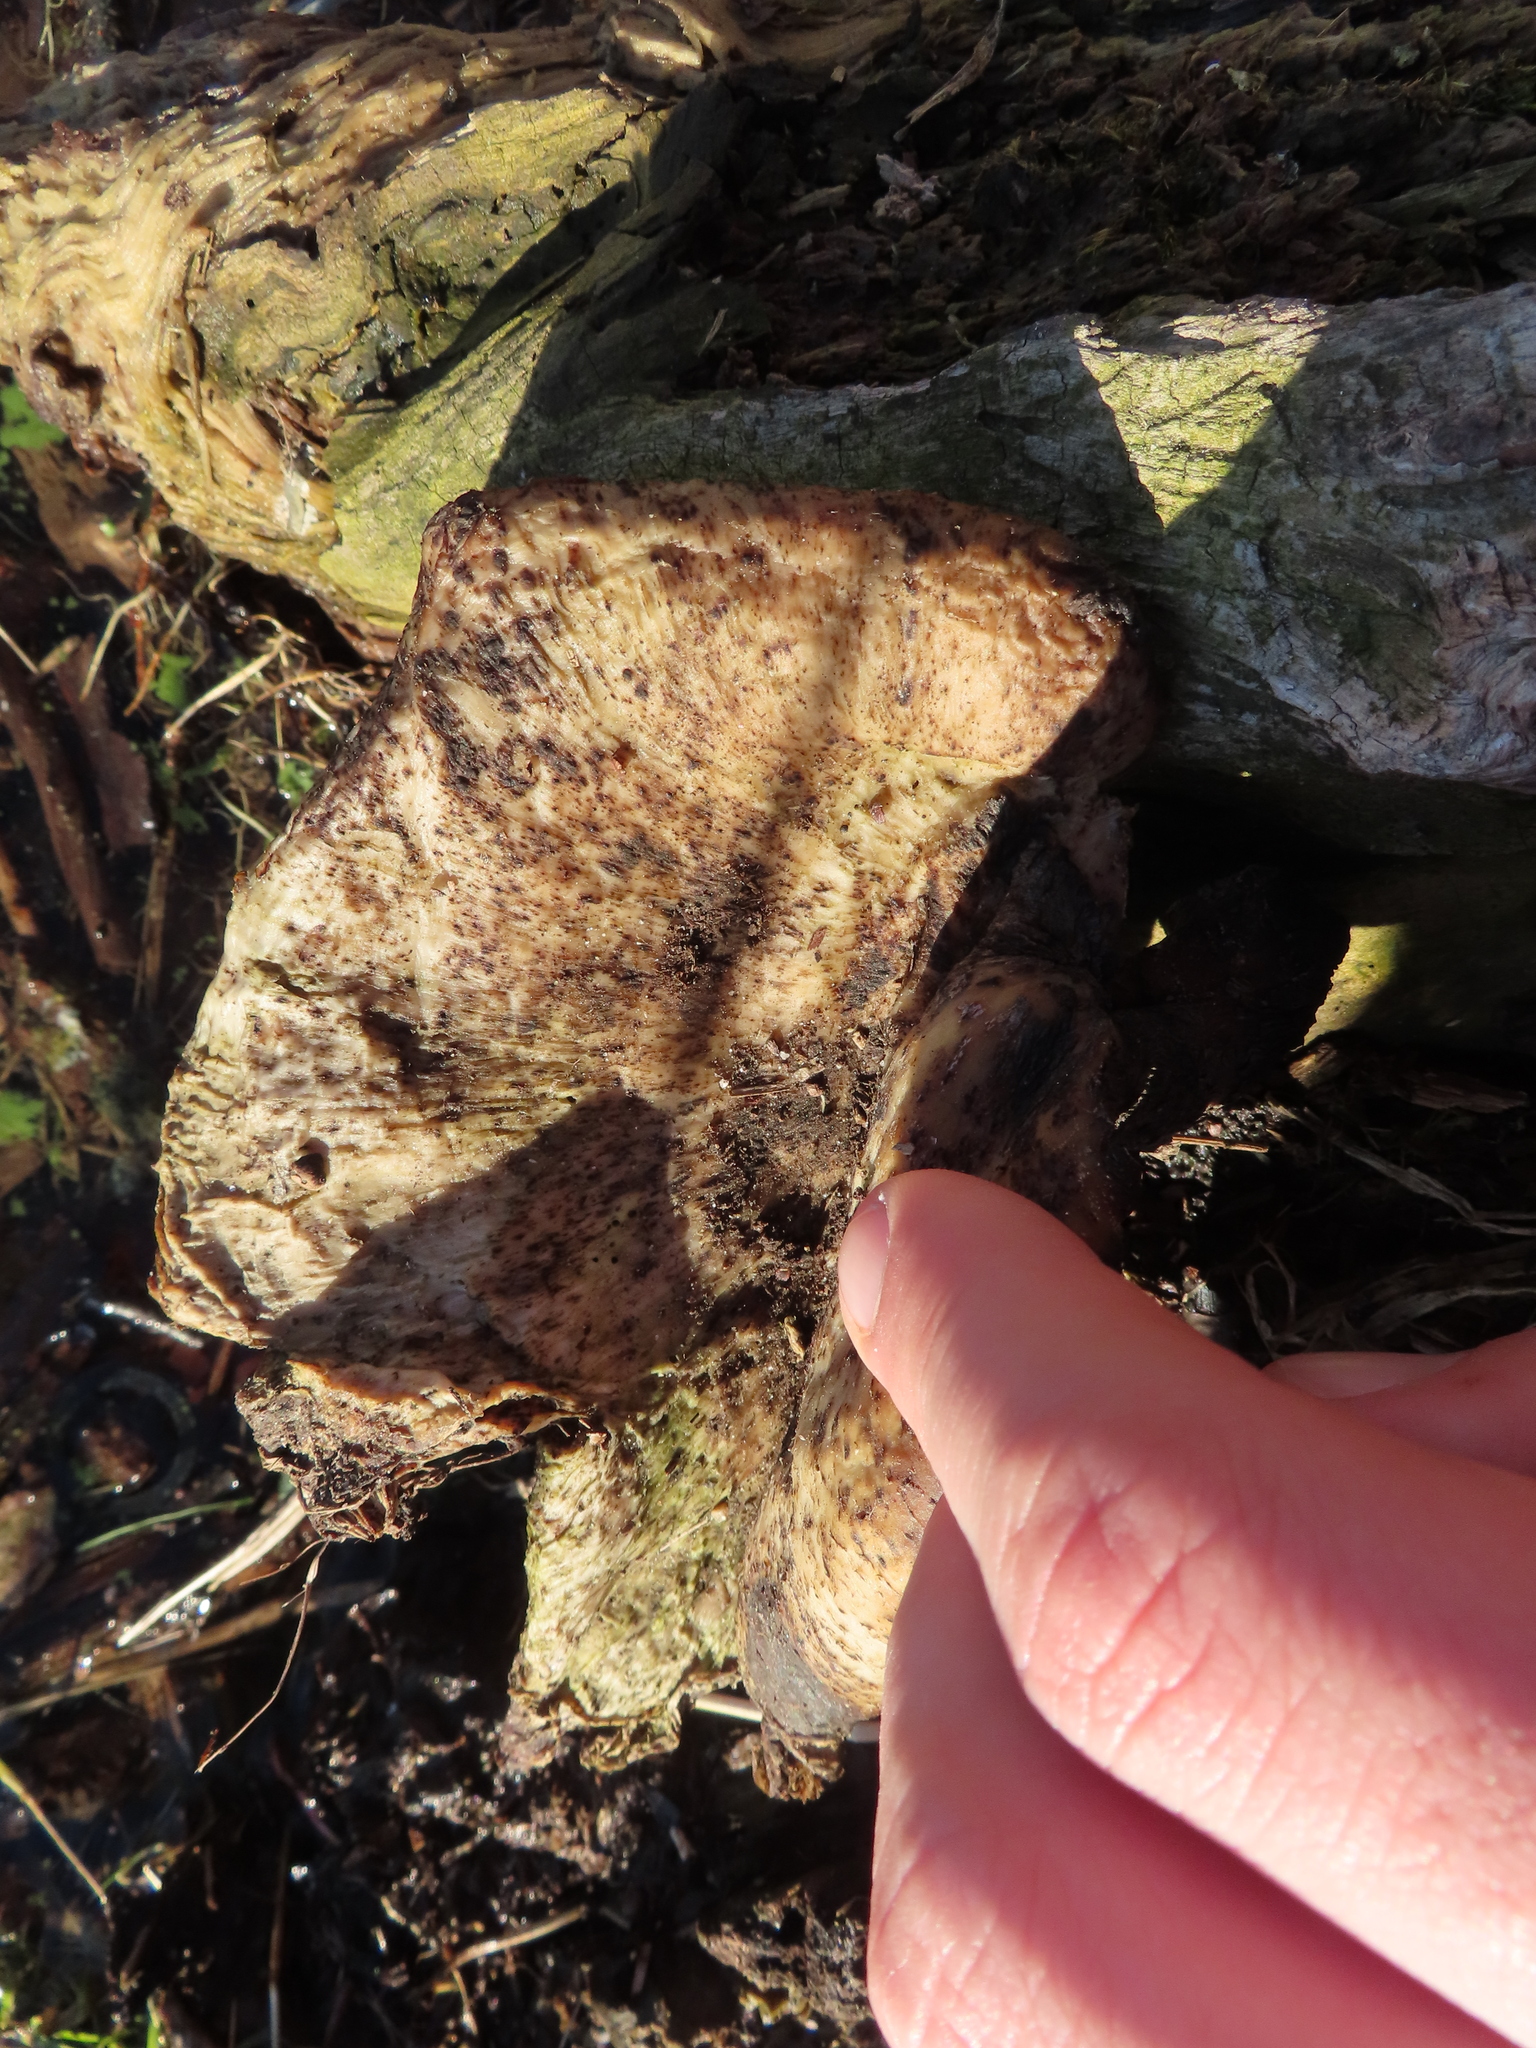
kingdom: Fungi
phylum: Basidiomycota
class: Agaricomycetes
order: Polyporales
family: Polyporaceae
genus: Cerioporus
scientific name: Cerioporus squamosus
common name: Dryad's saddle
